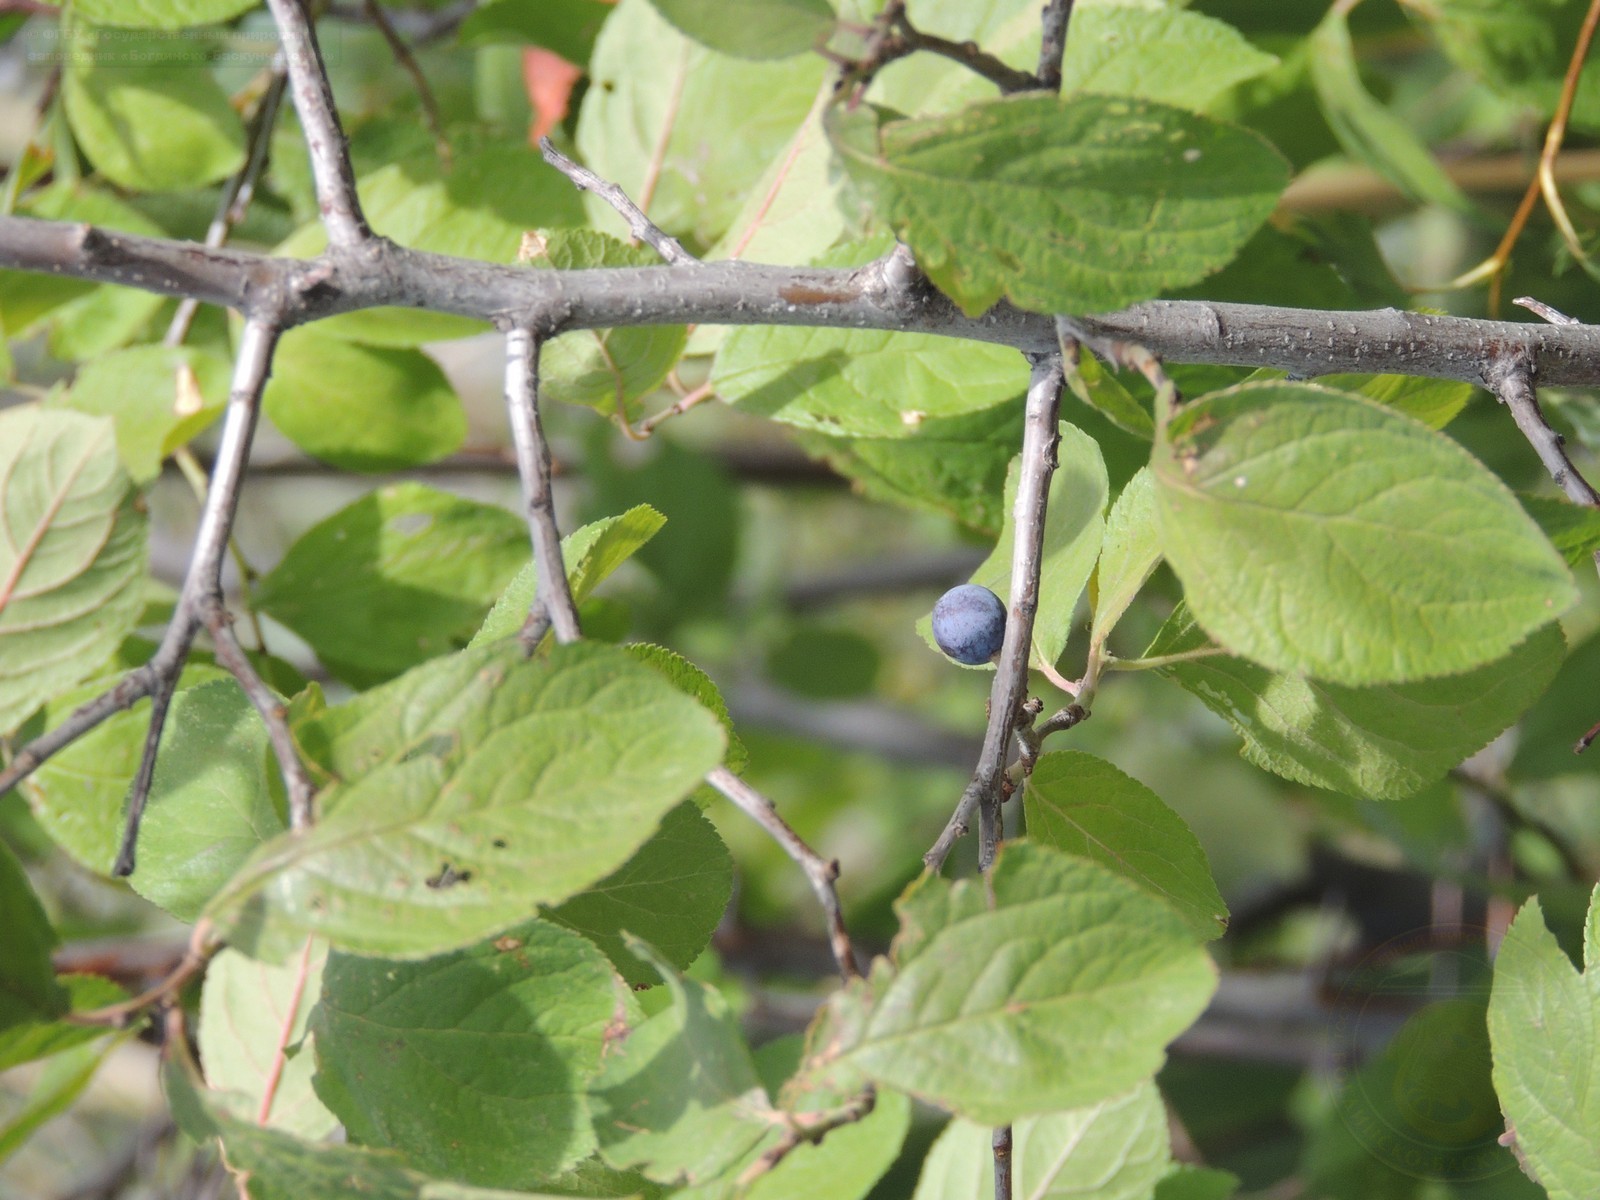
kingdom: Plantae
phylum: Tracheophyta
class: Magnoliopsida
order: Rosales
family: Rosaceae
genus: Prunus
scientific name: Prunus spinosa
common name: Blackthorn
